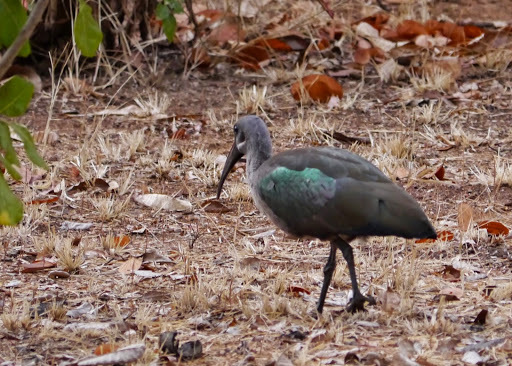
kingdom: Animalia
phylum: Chordata
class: Aves
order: Pelecaniformes
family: Threskiornithidae
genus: Bostrychia
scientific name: Bostrychia hagedash
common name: Hadada ibis
